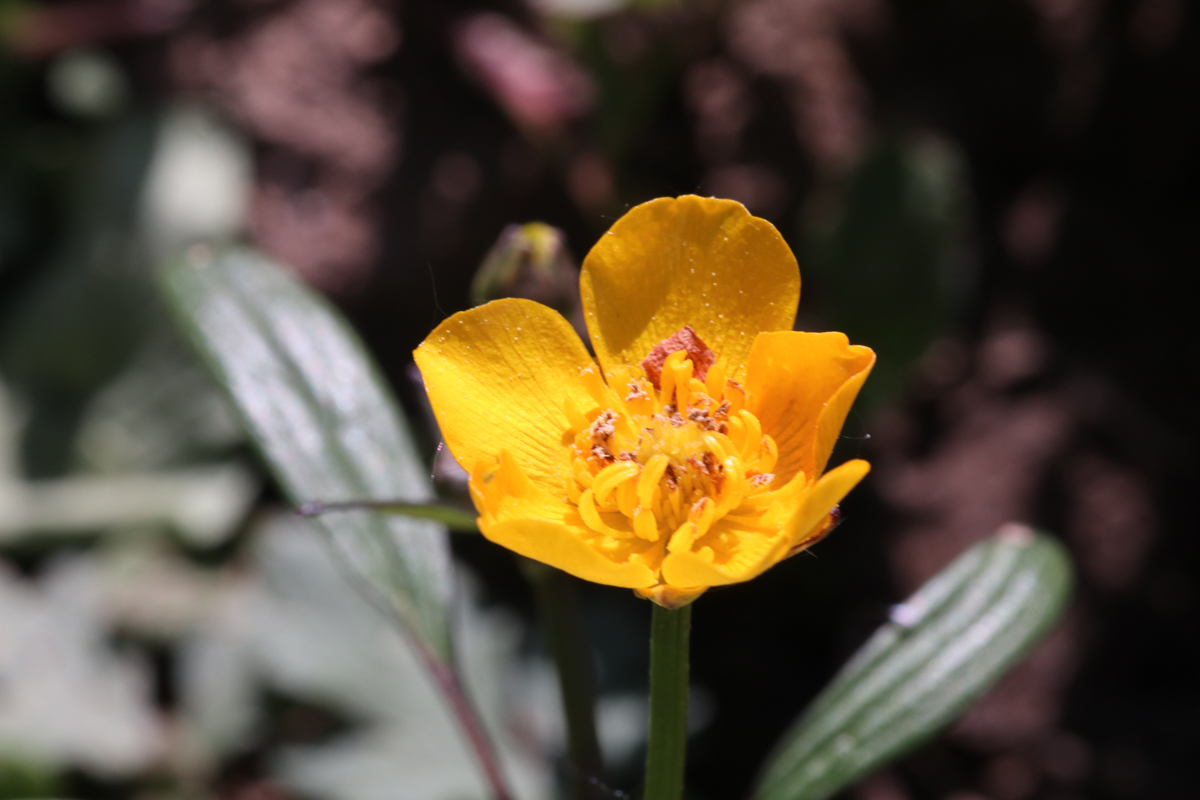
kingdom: Plantae
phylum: Tracheophyta
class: Magnoliopsida
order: Ranunculales
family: Ranunculaceae
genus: Ranunculus
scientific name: Ranunculus repens
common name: Creeping buttercup
